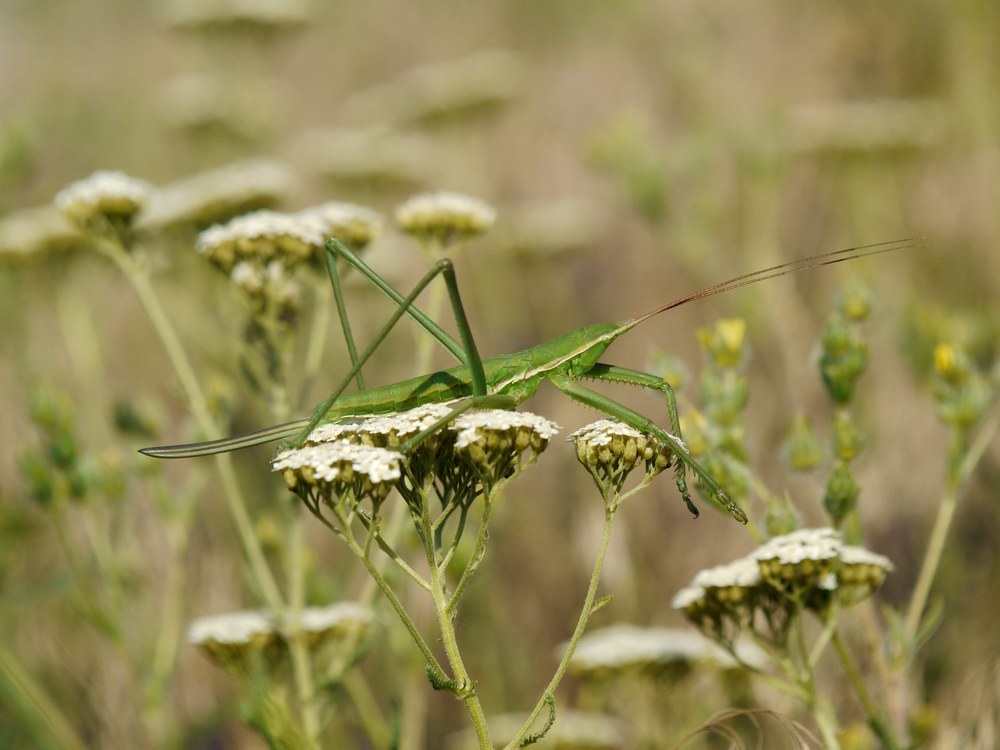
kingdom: Animalia
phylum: Arthropoda
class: Insecta
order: Orthoptera
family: Tettigoniidae
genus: Saga
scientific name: Saga pedo
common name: Common predatory bush-cricket
